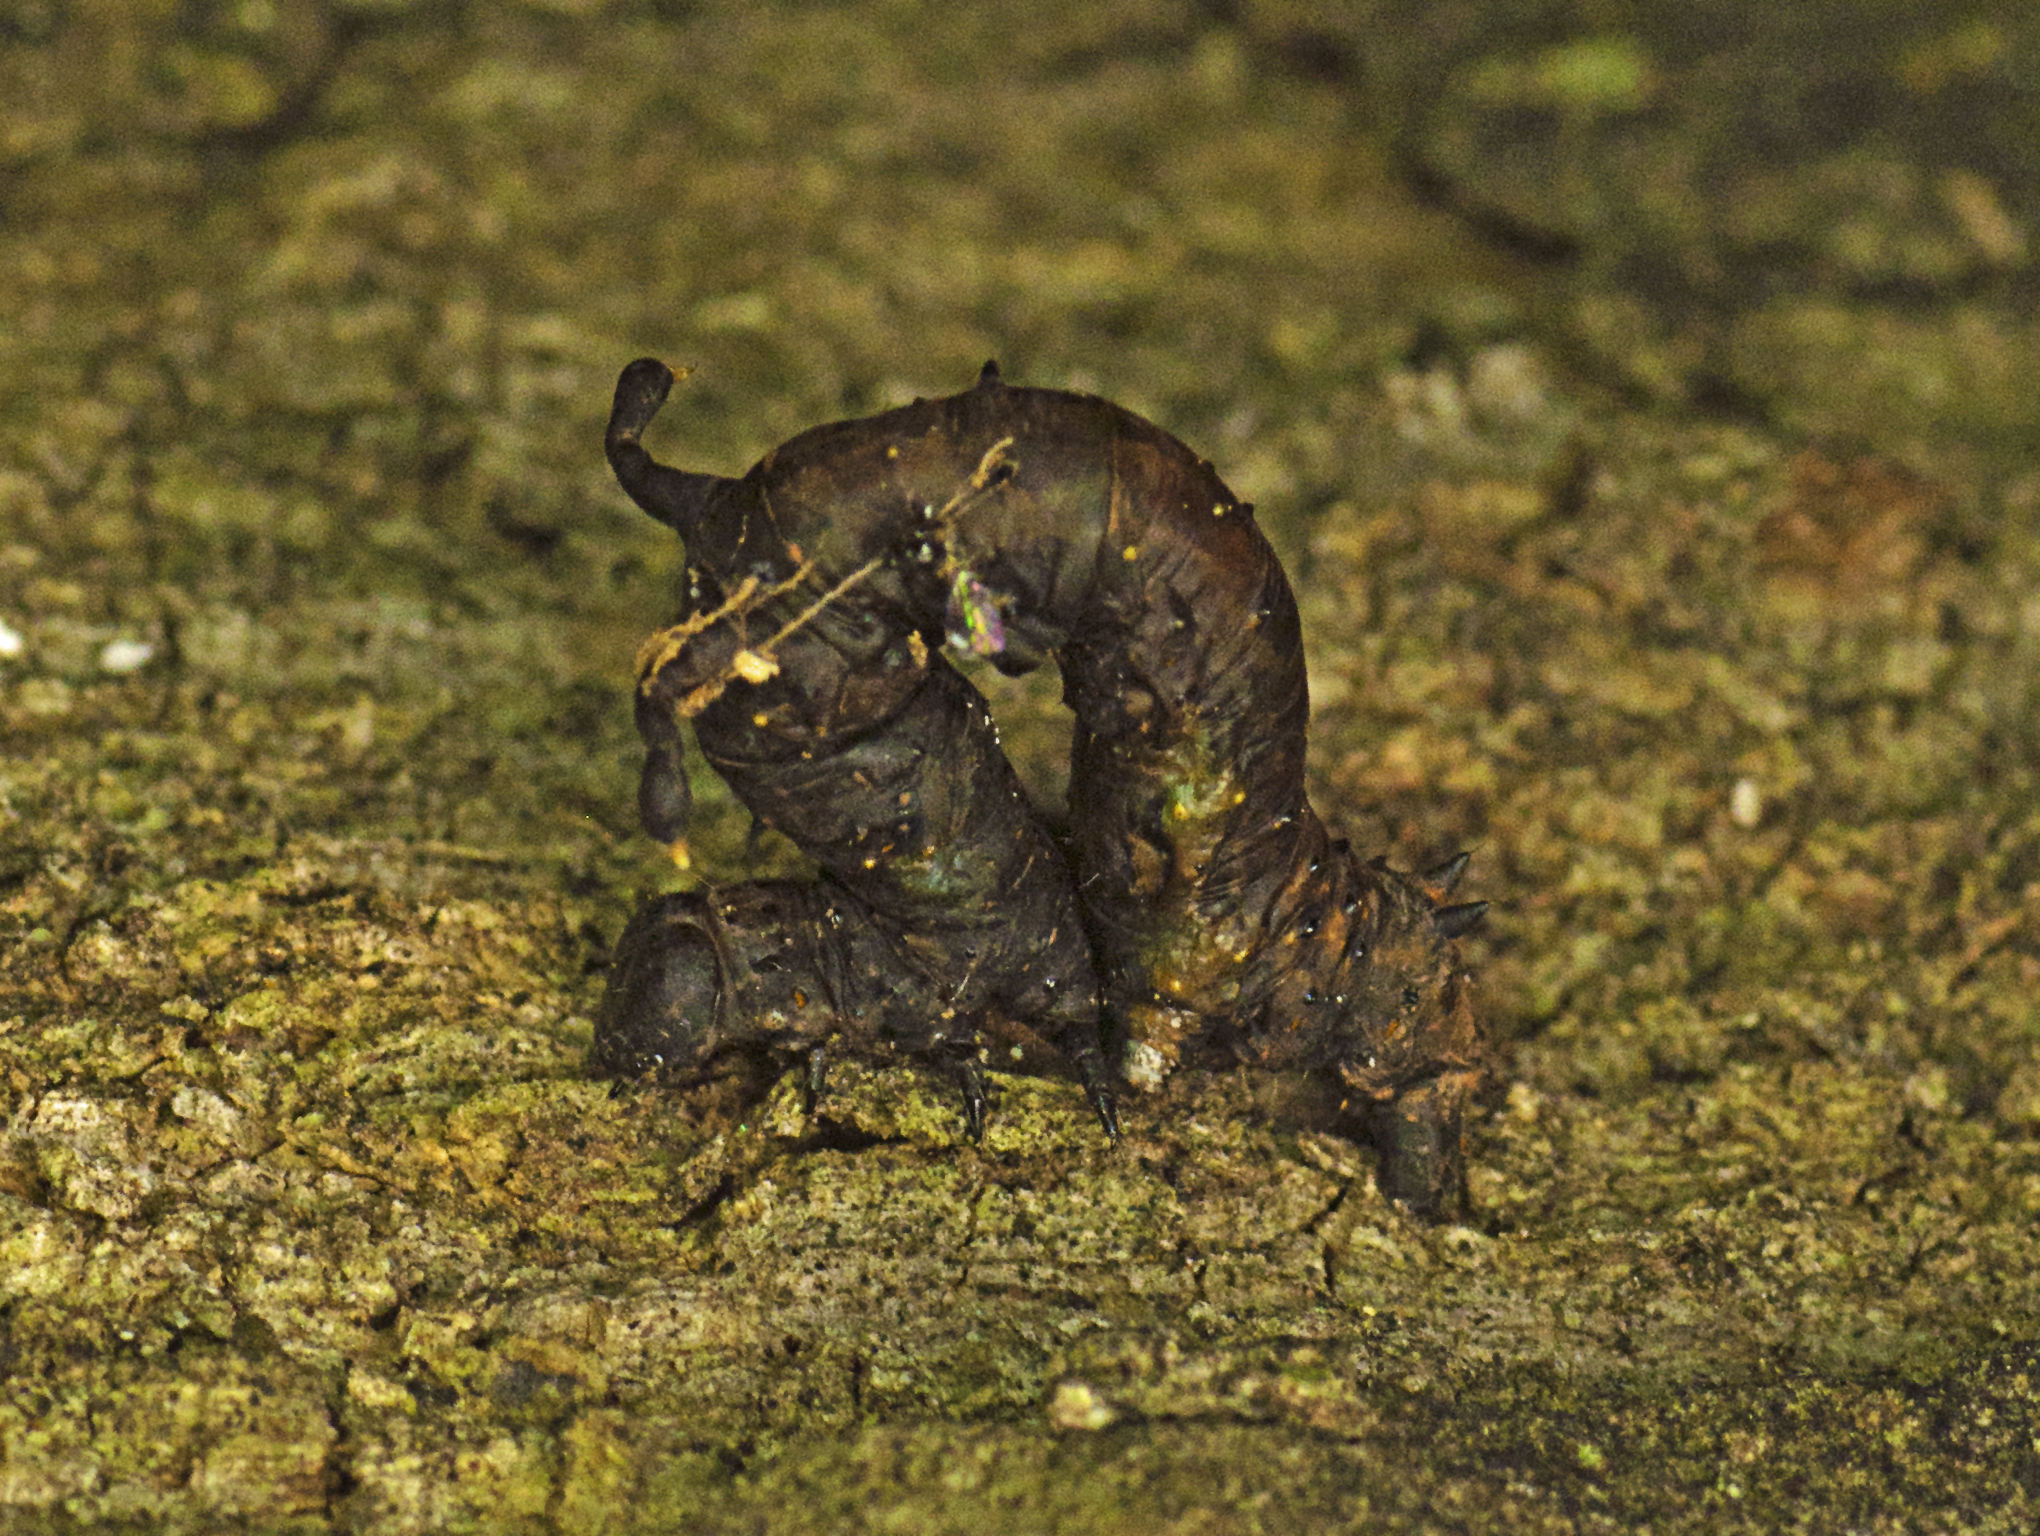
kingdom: Animalia
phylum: Arthropoda
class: Insecta
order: Lepidoptera
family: Geometridae
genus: Gonodontis
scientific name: Gonodontis luteola
